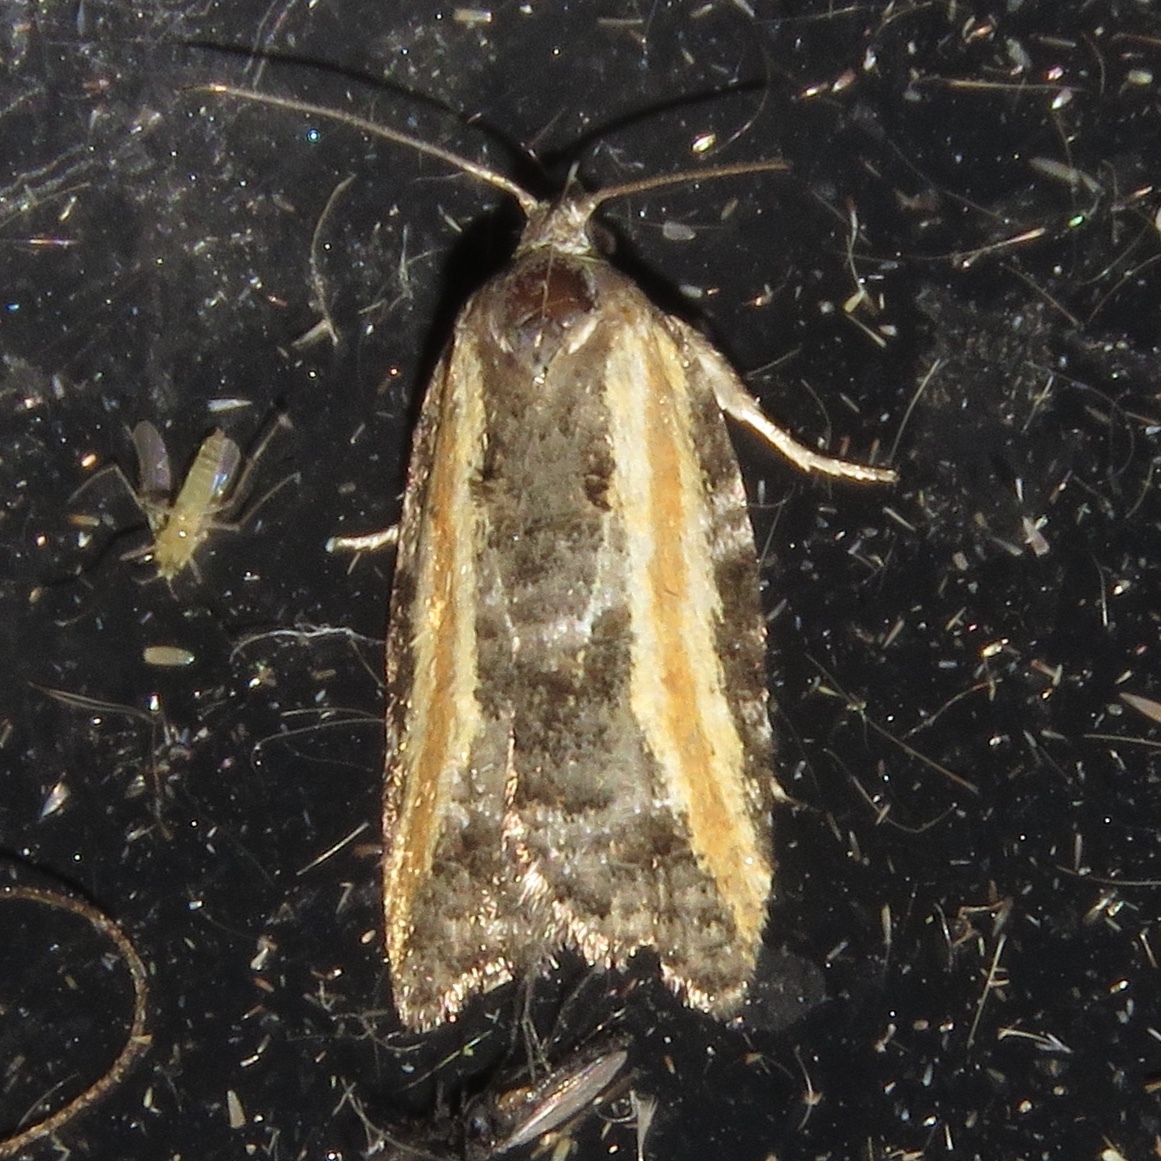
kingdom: Animalia
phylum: Arthropoda
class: Insecta
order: Lepidoptera
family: Tortricidae
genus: Acleris
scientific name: Acleris variana
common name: Eastern black-headed budworm moth
